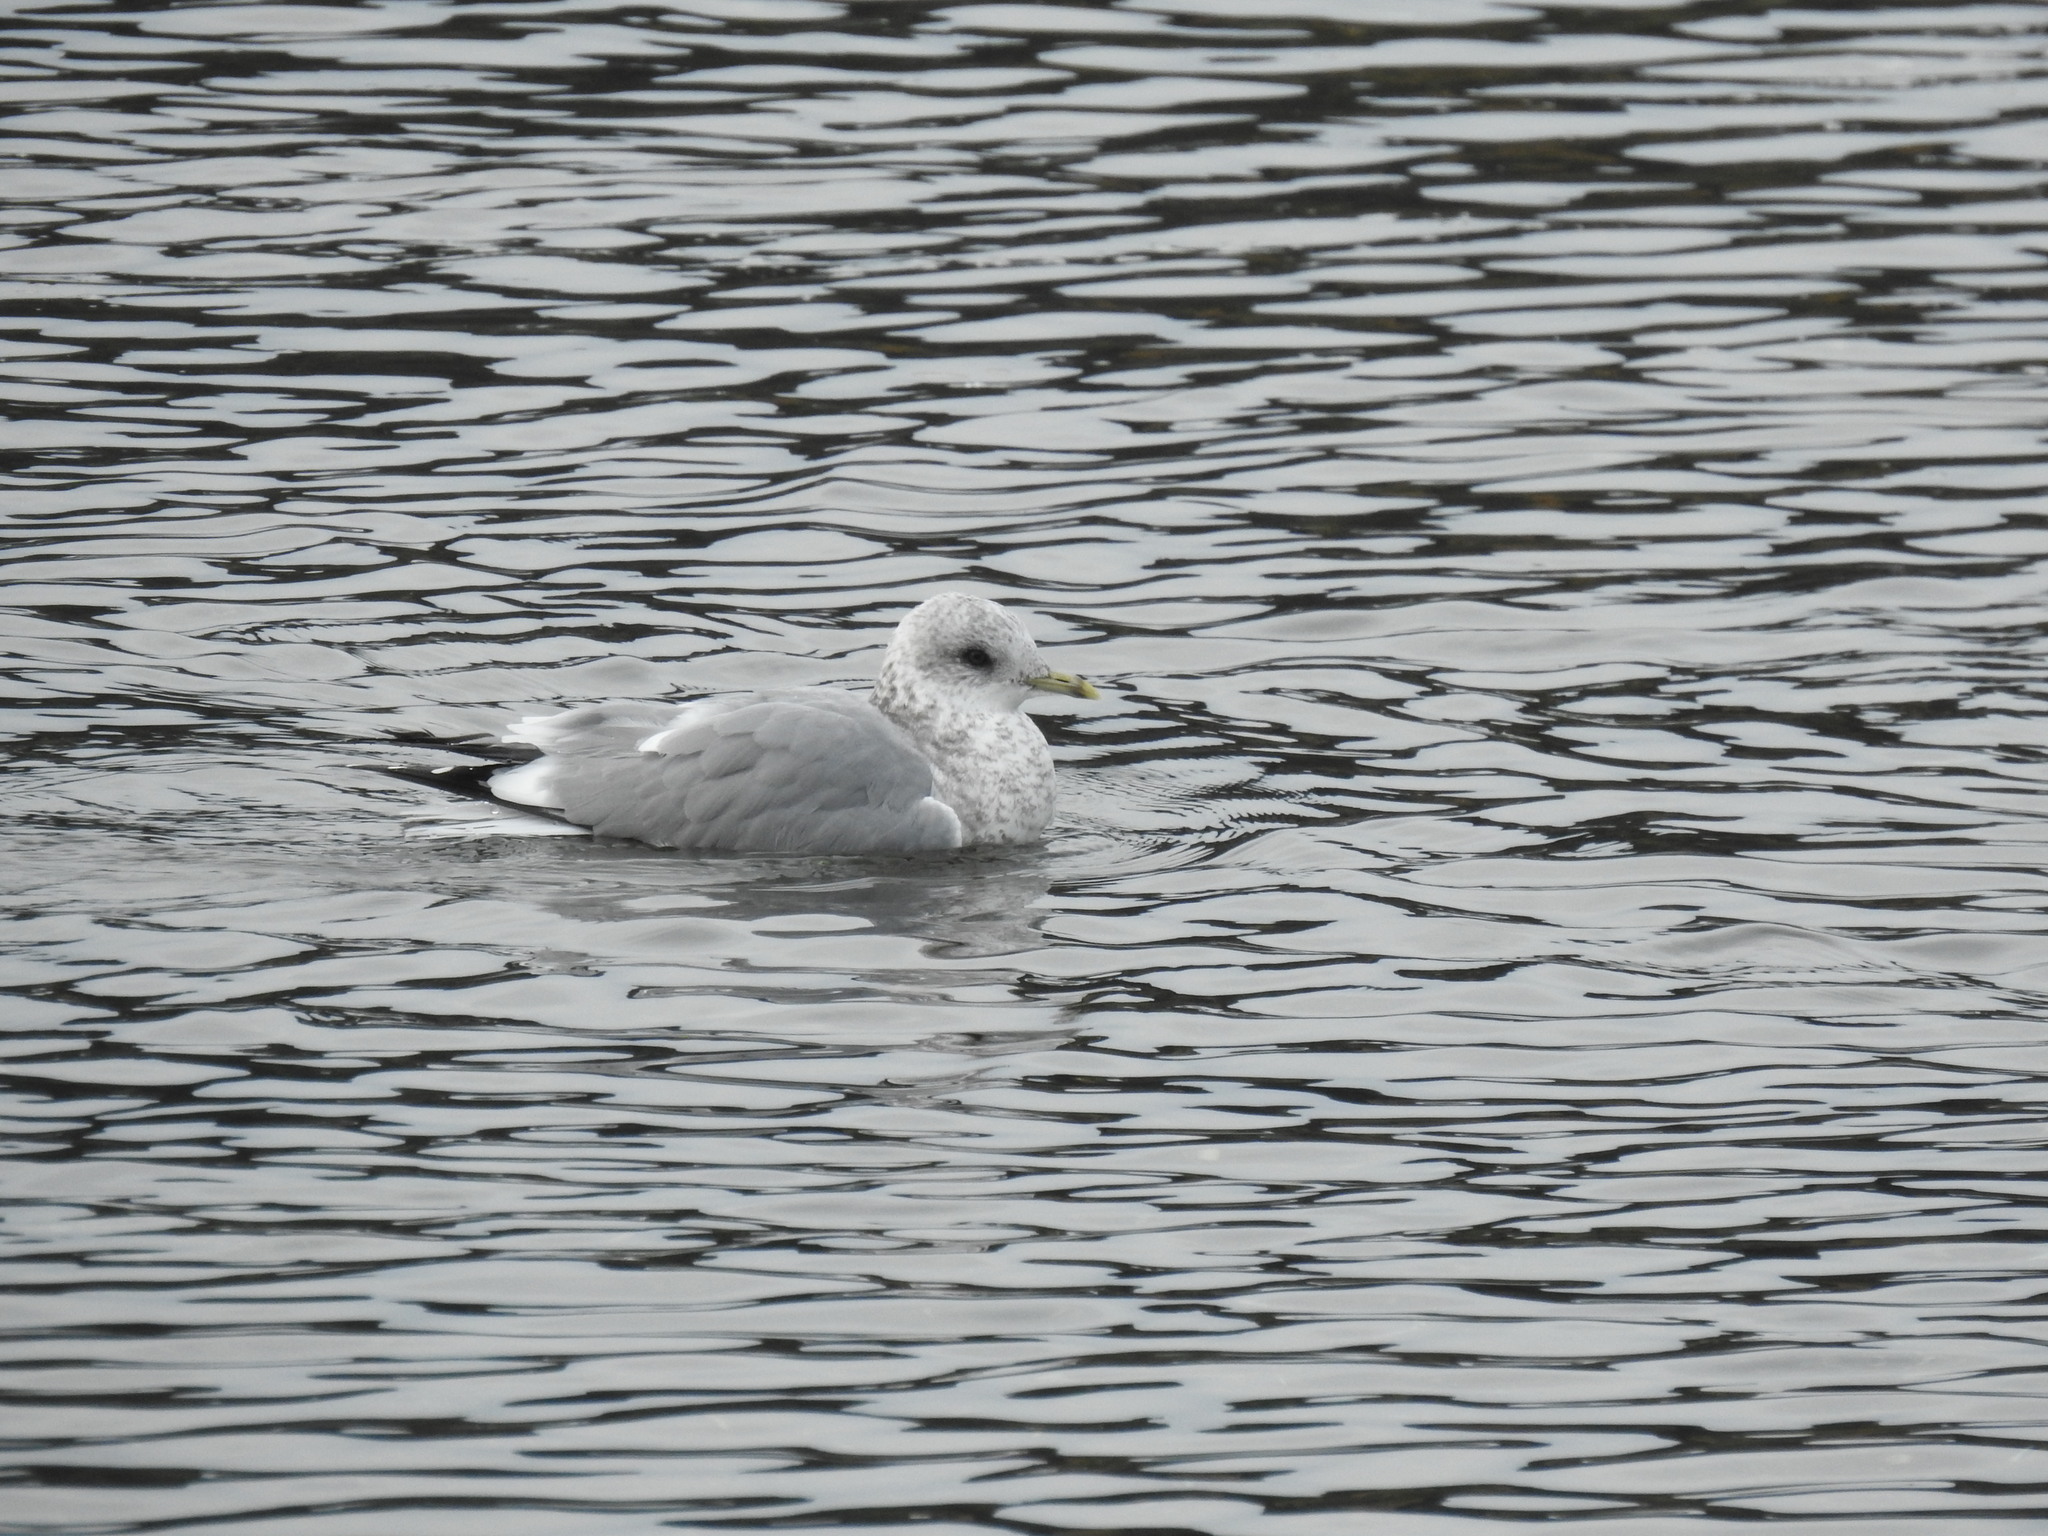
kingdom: Animalia
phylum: Chordata
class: Aves
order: Charadriiformes
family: Laridae
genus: Larus
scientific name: Larus brachyrhynchus
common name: Short-billed gull
